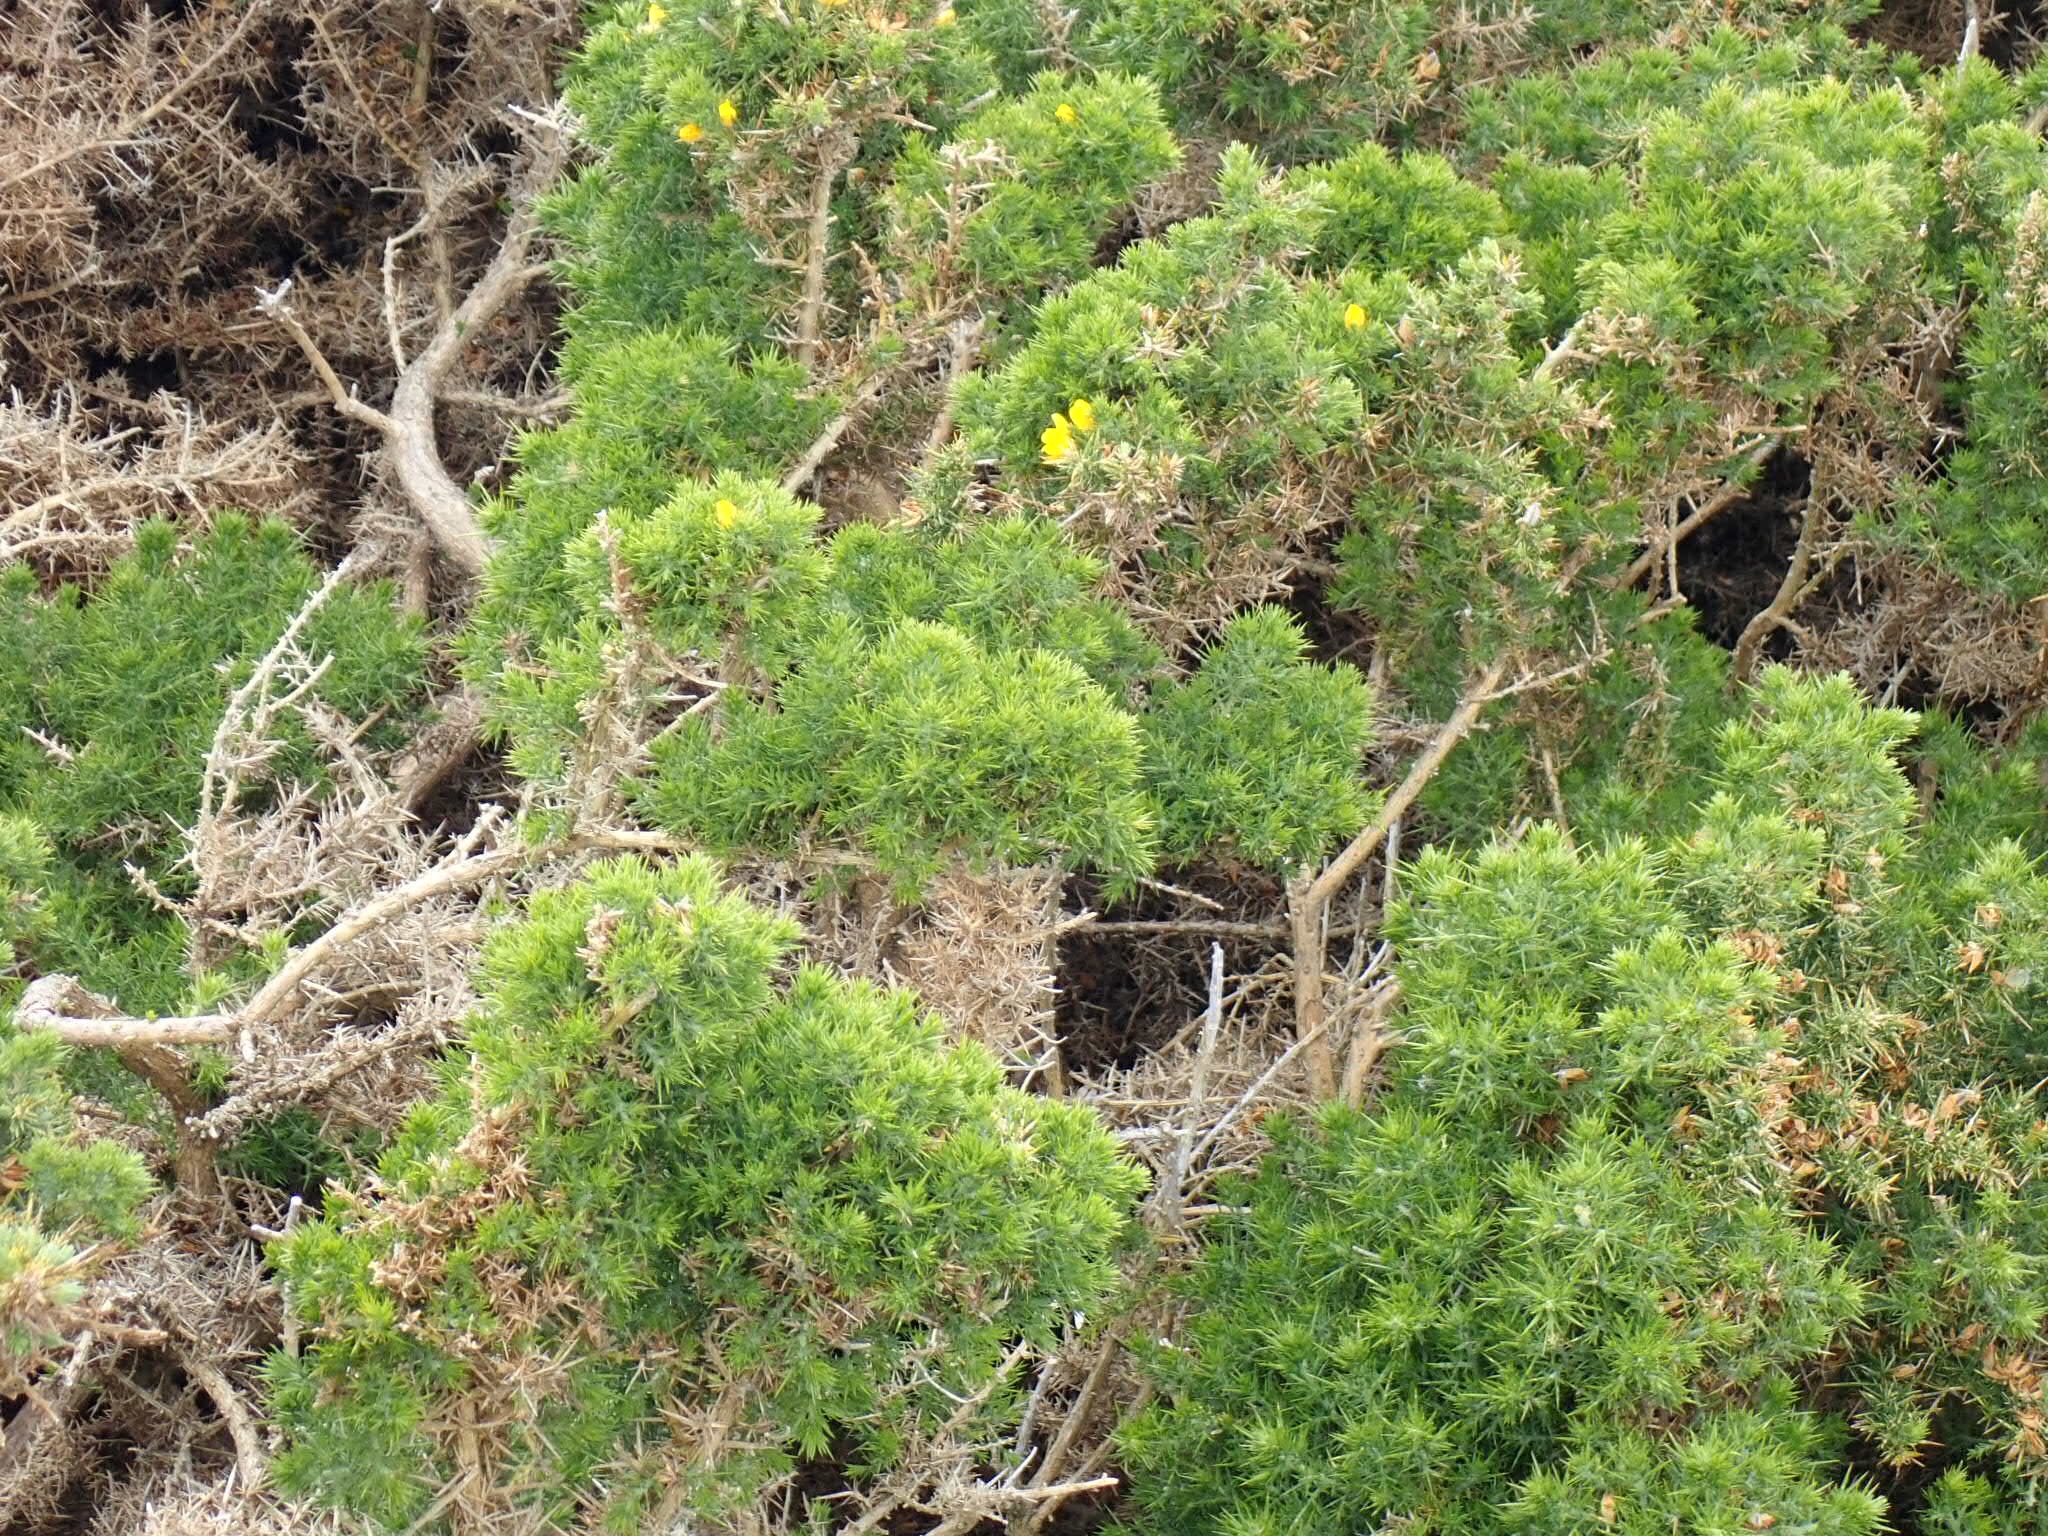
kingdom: Plantae
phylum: Tracheophyta
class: Magnoliopsida
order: Fabales
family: Fabaceae
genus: Ulex
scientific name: Ulex europaeus
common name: Common gorse
